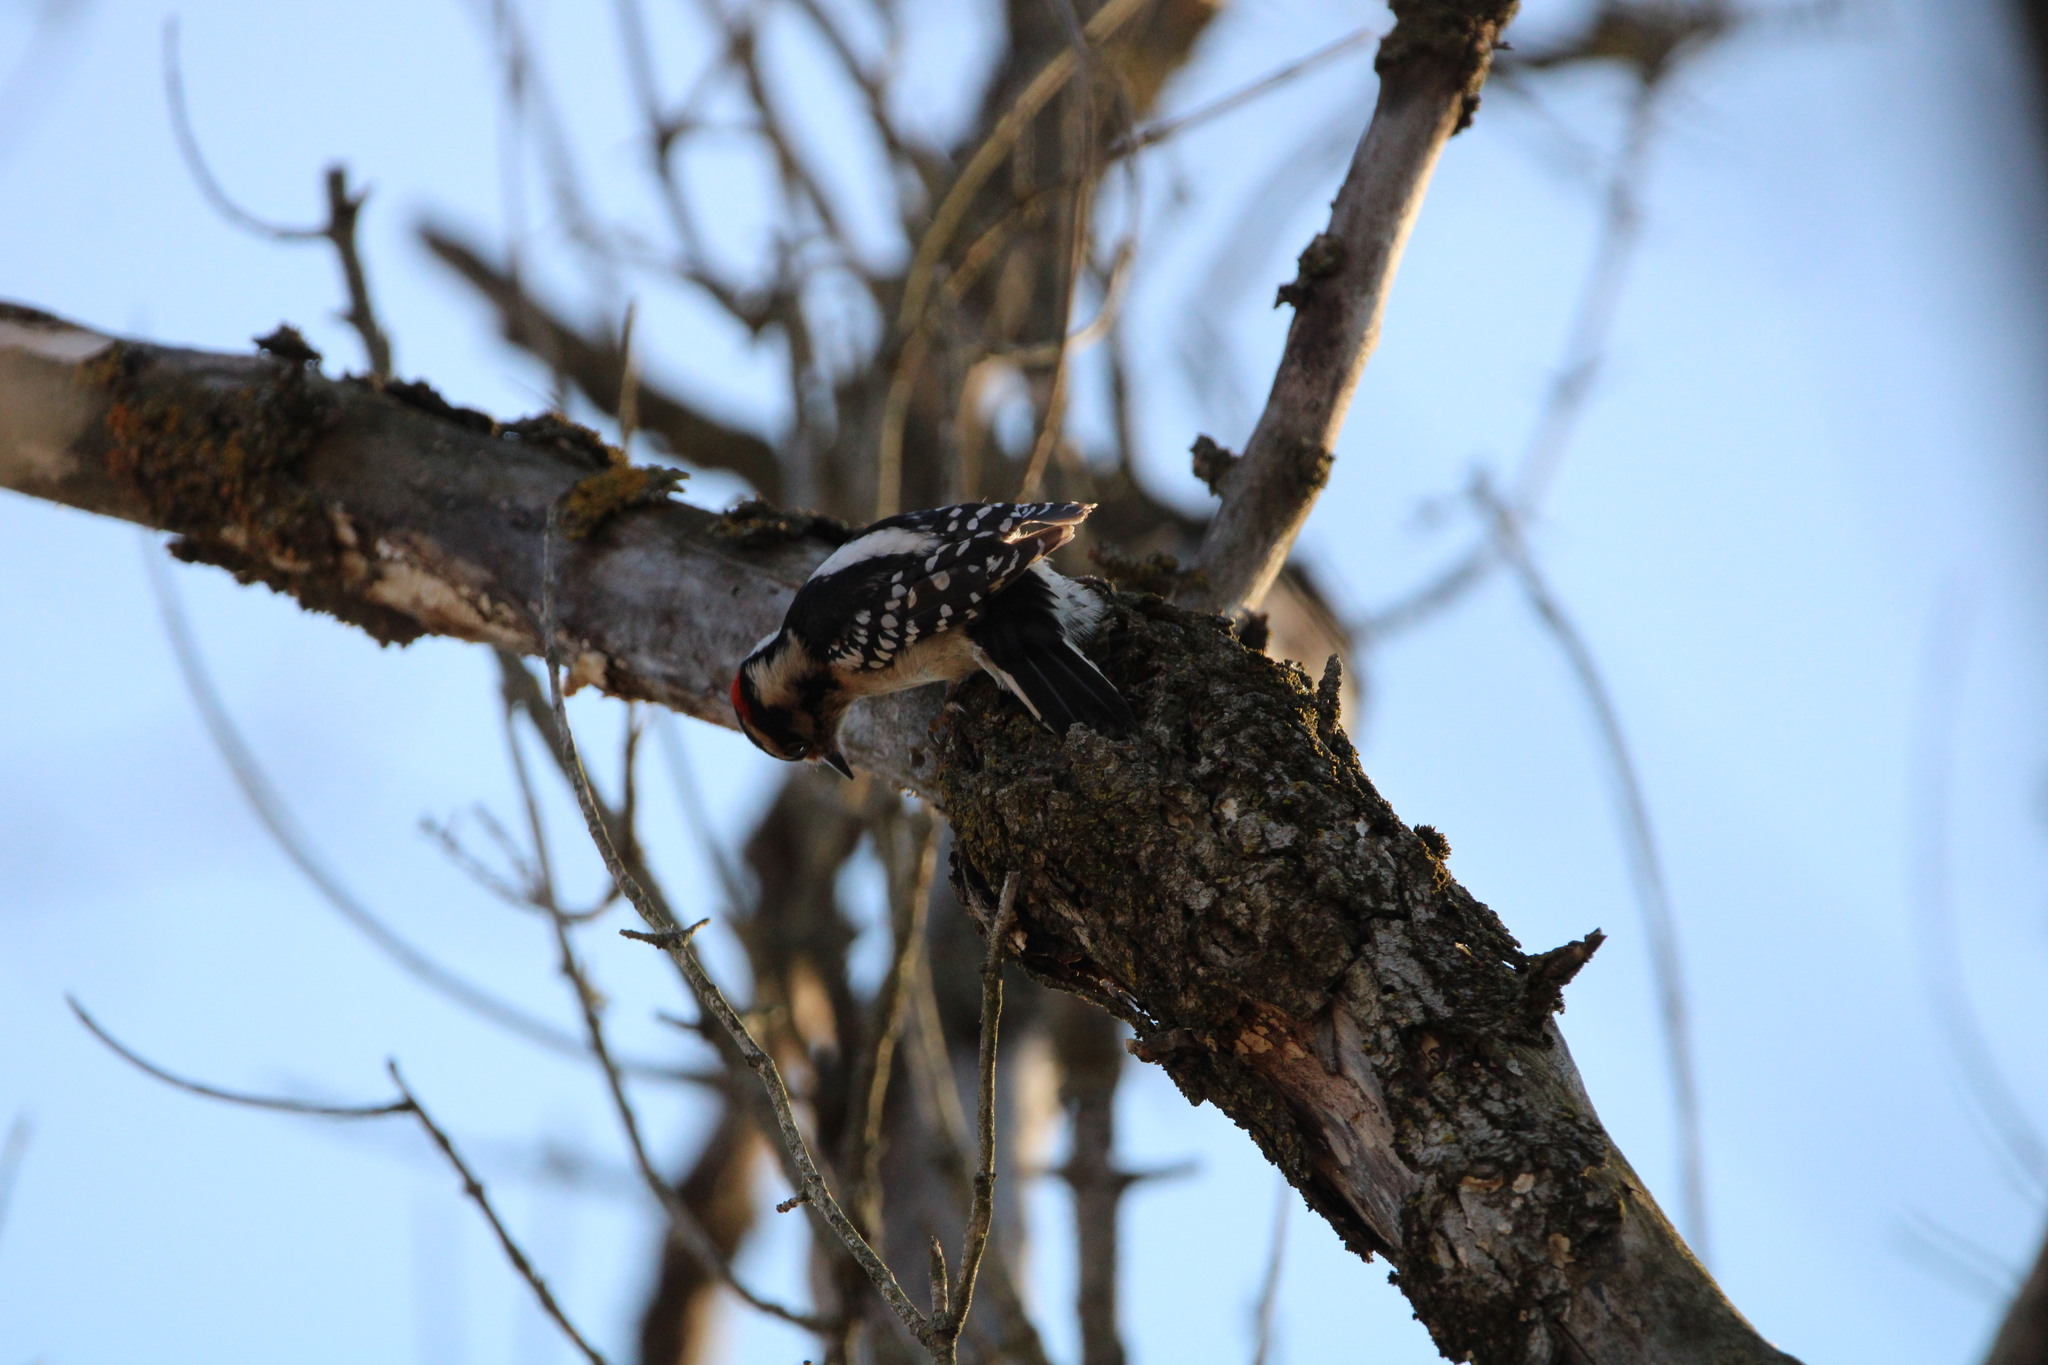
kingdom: Animalia
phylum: Chordata
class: Aves
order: Piciformes
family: Picidae
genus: Dryobates
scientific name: Dryobates pubescens
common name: Downy woodpecker
